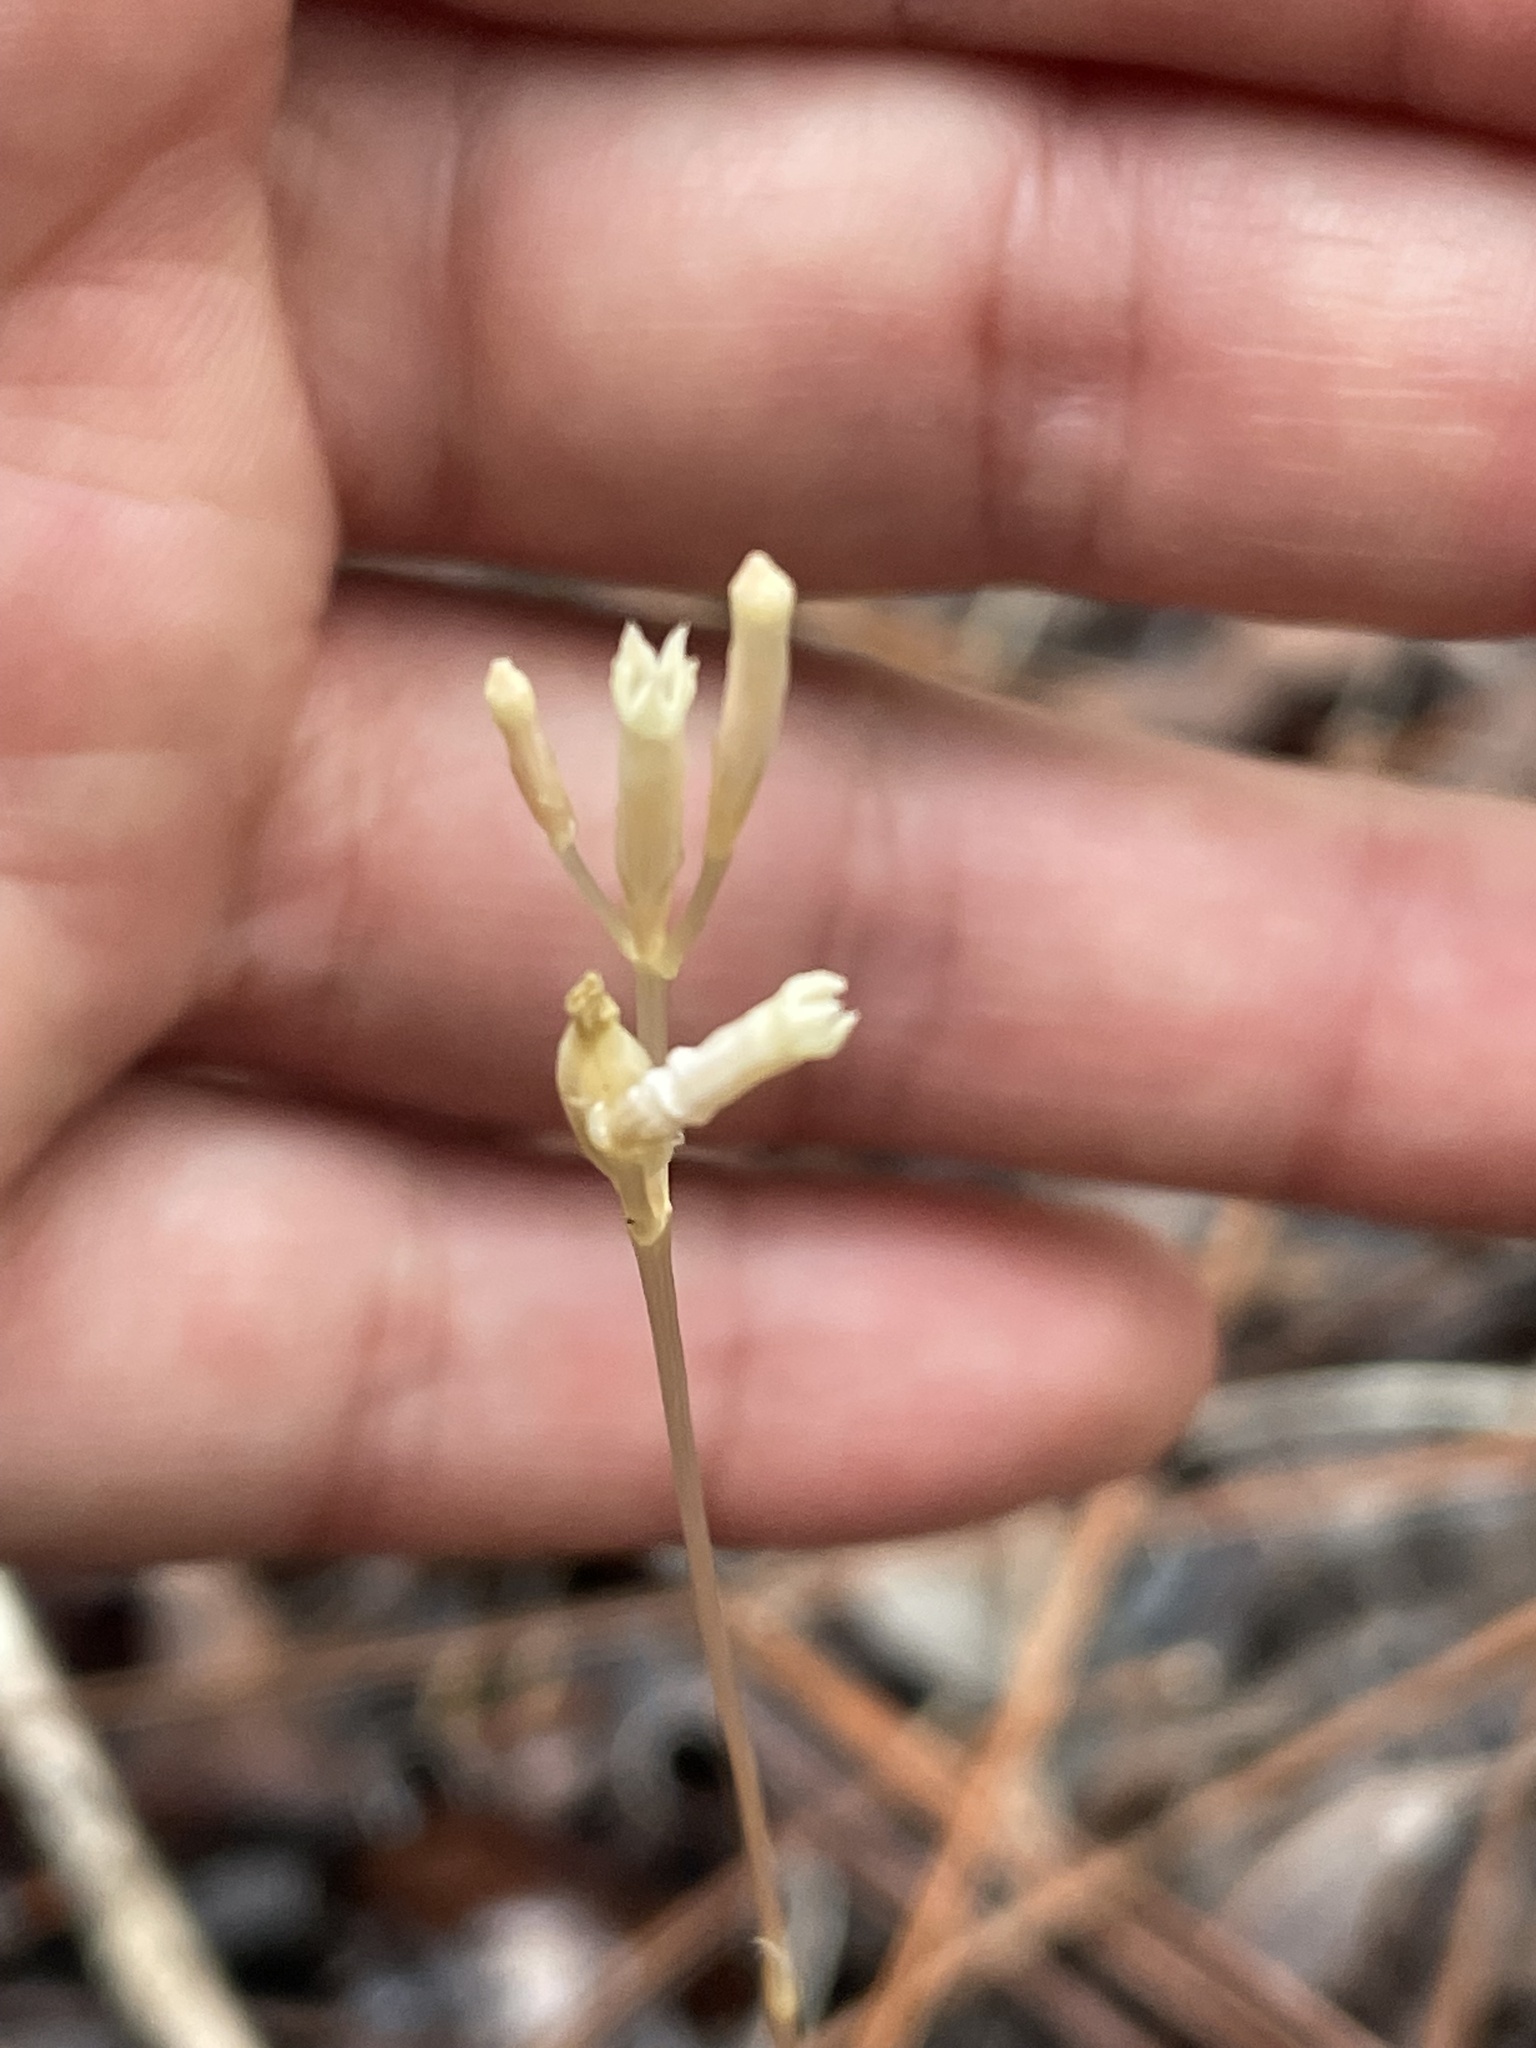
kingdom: Plantae
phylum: Tracheophyta
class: Magnoliopsida
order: Gentianales
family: Gentianaceae
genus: Voyria
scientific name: Voyria parasitica
